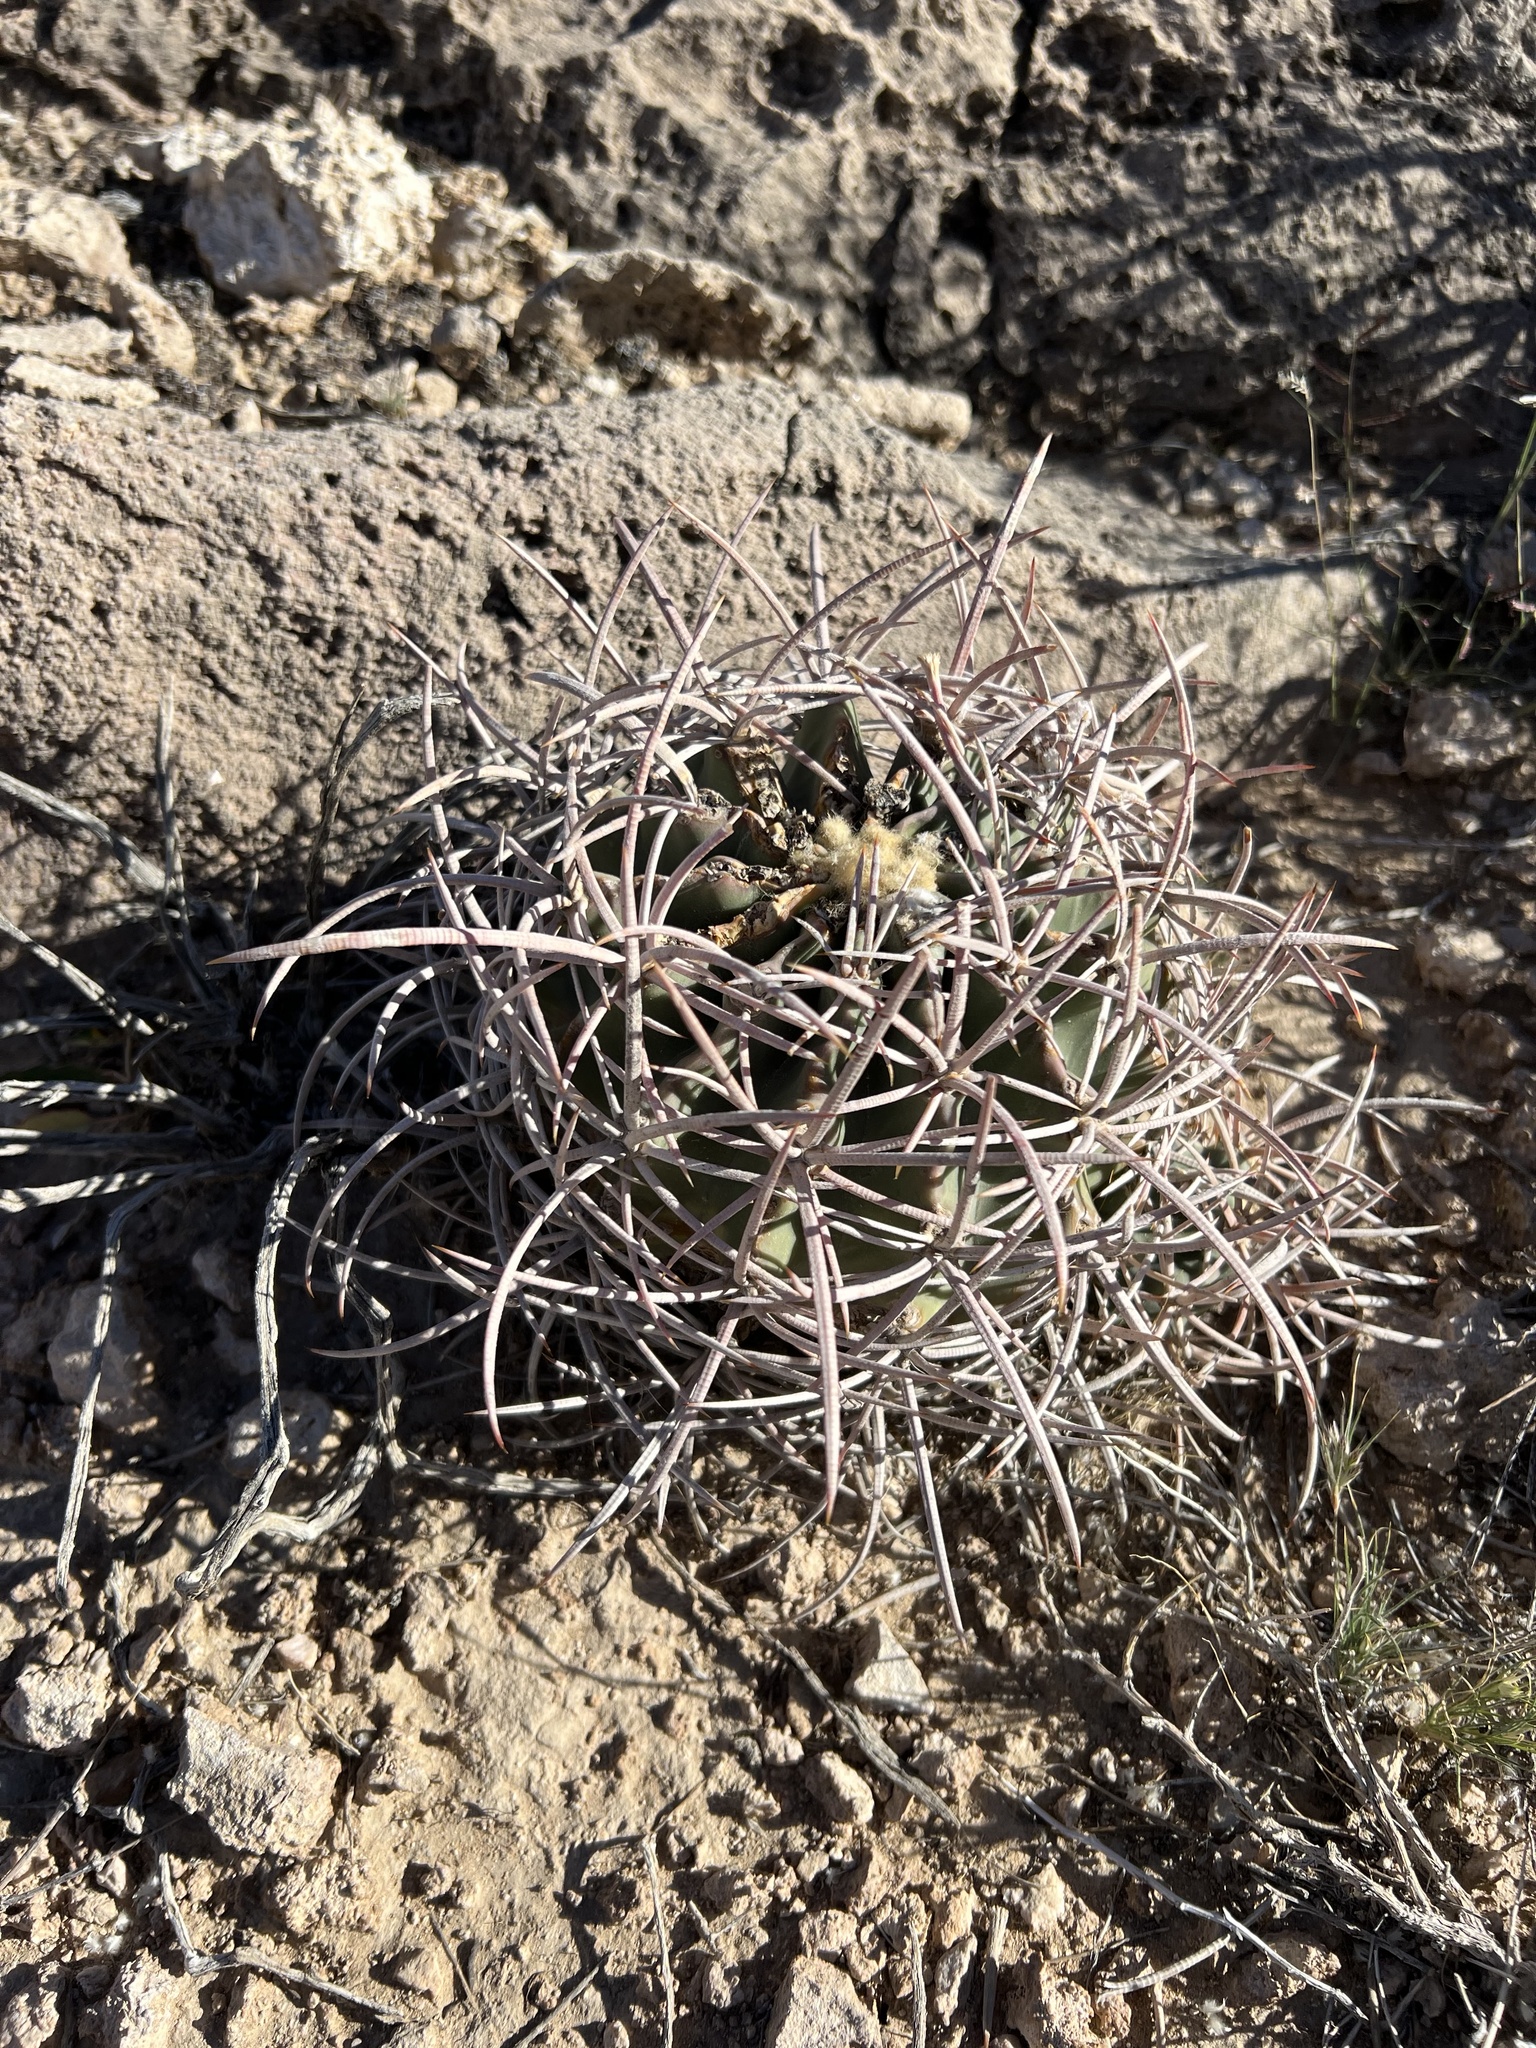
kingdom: Plantae
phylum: Tracheophyta
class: Magnoliopsida
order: Caryophyllales
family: Cactaceae
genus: Echinocactus
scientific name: Echinocactus polycephalus
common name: Cottontop cactus
